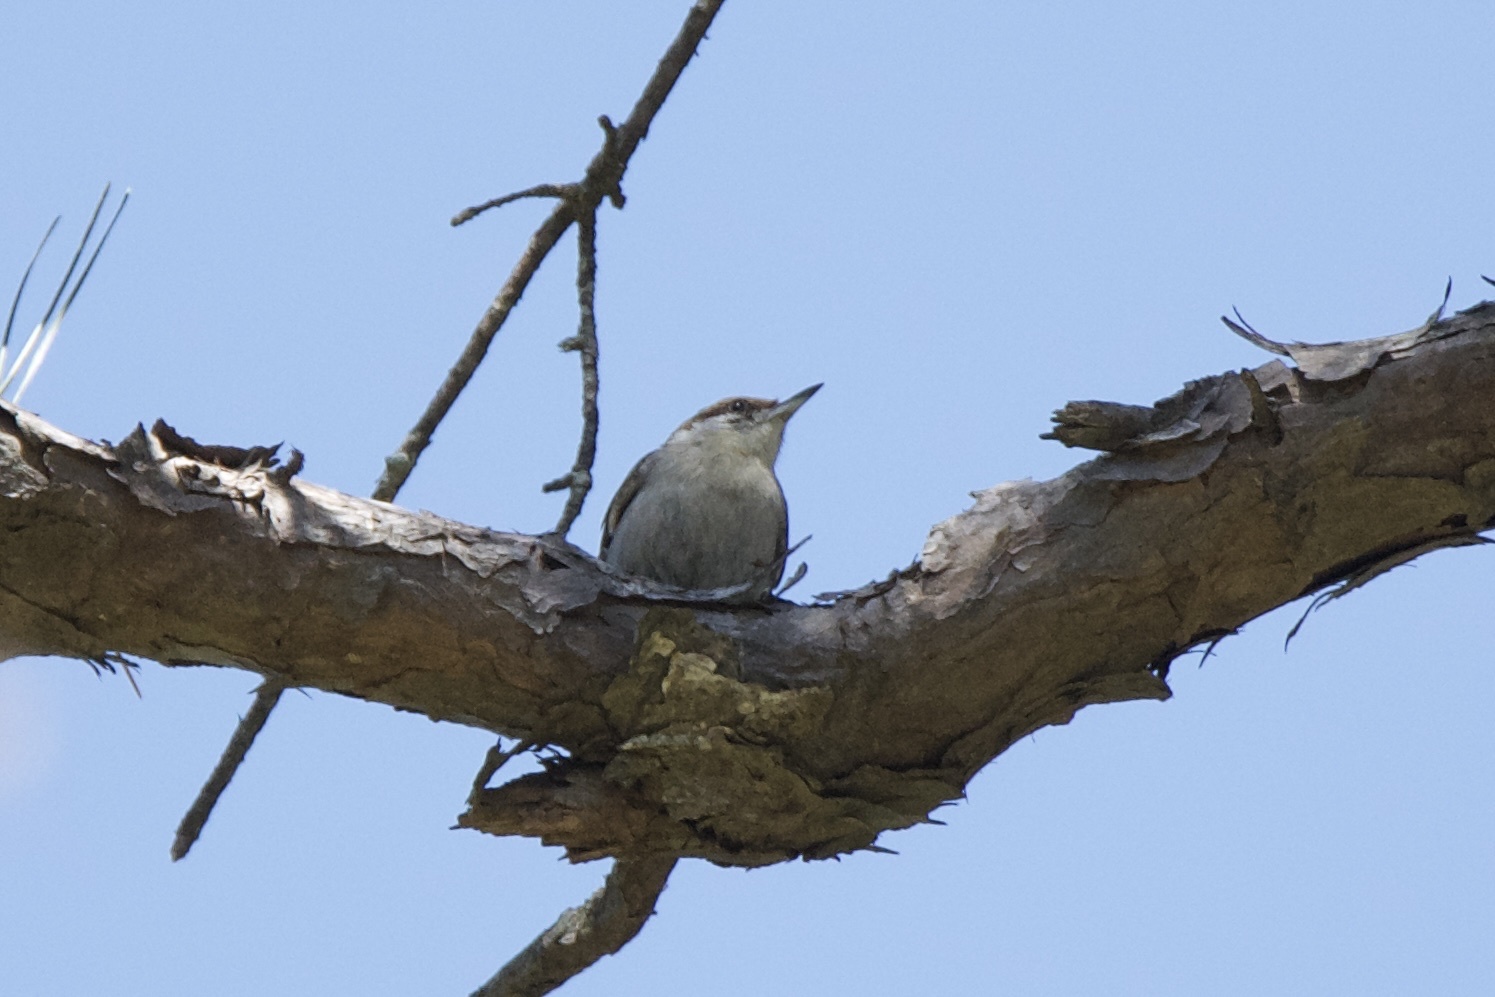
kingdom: Animalia
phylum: Chordata
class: Aves
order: Passeriformes
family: Sittidae
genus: Sitta
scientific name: Sitta pusilla
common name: Brown-headed nuthatch
